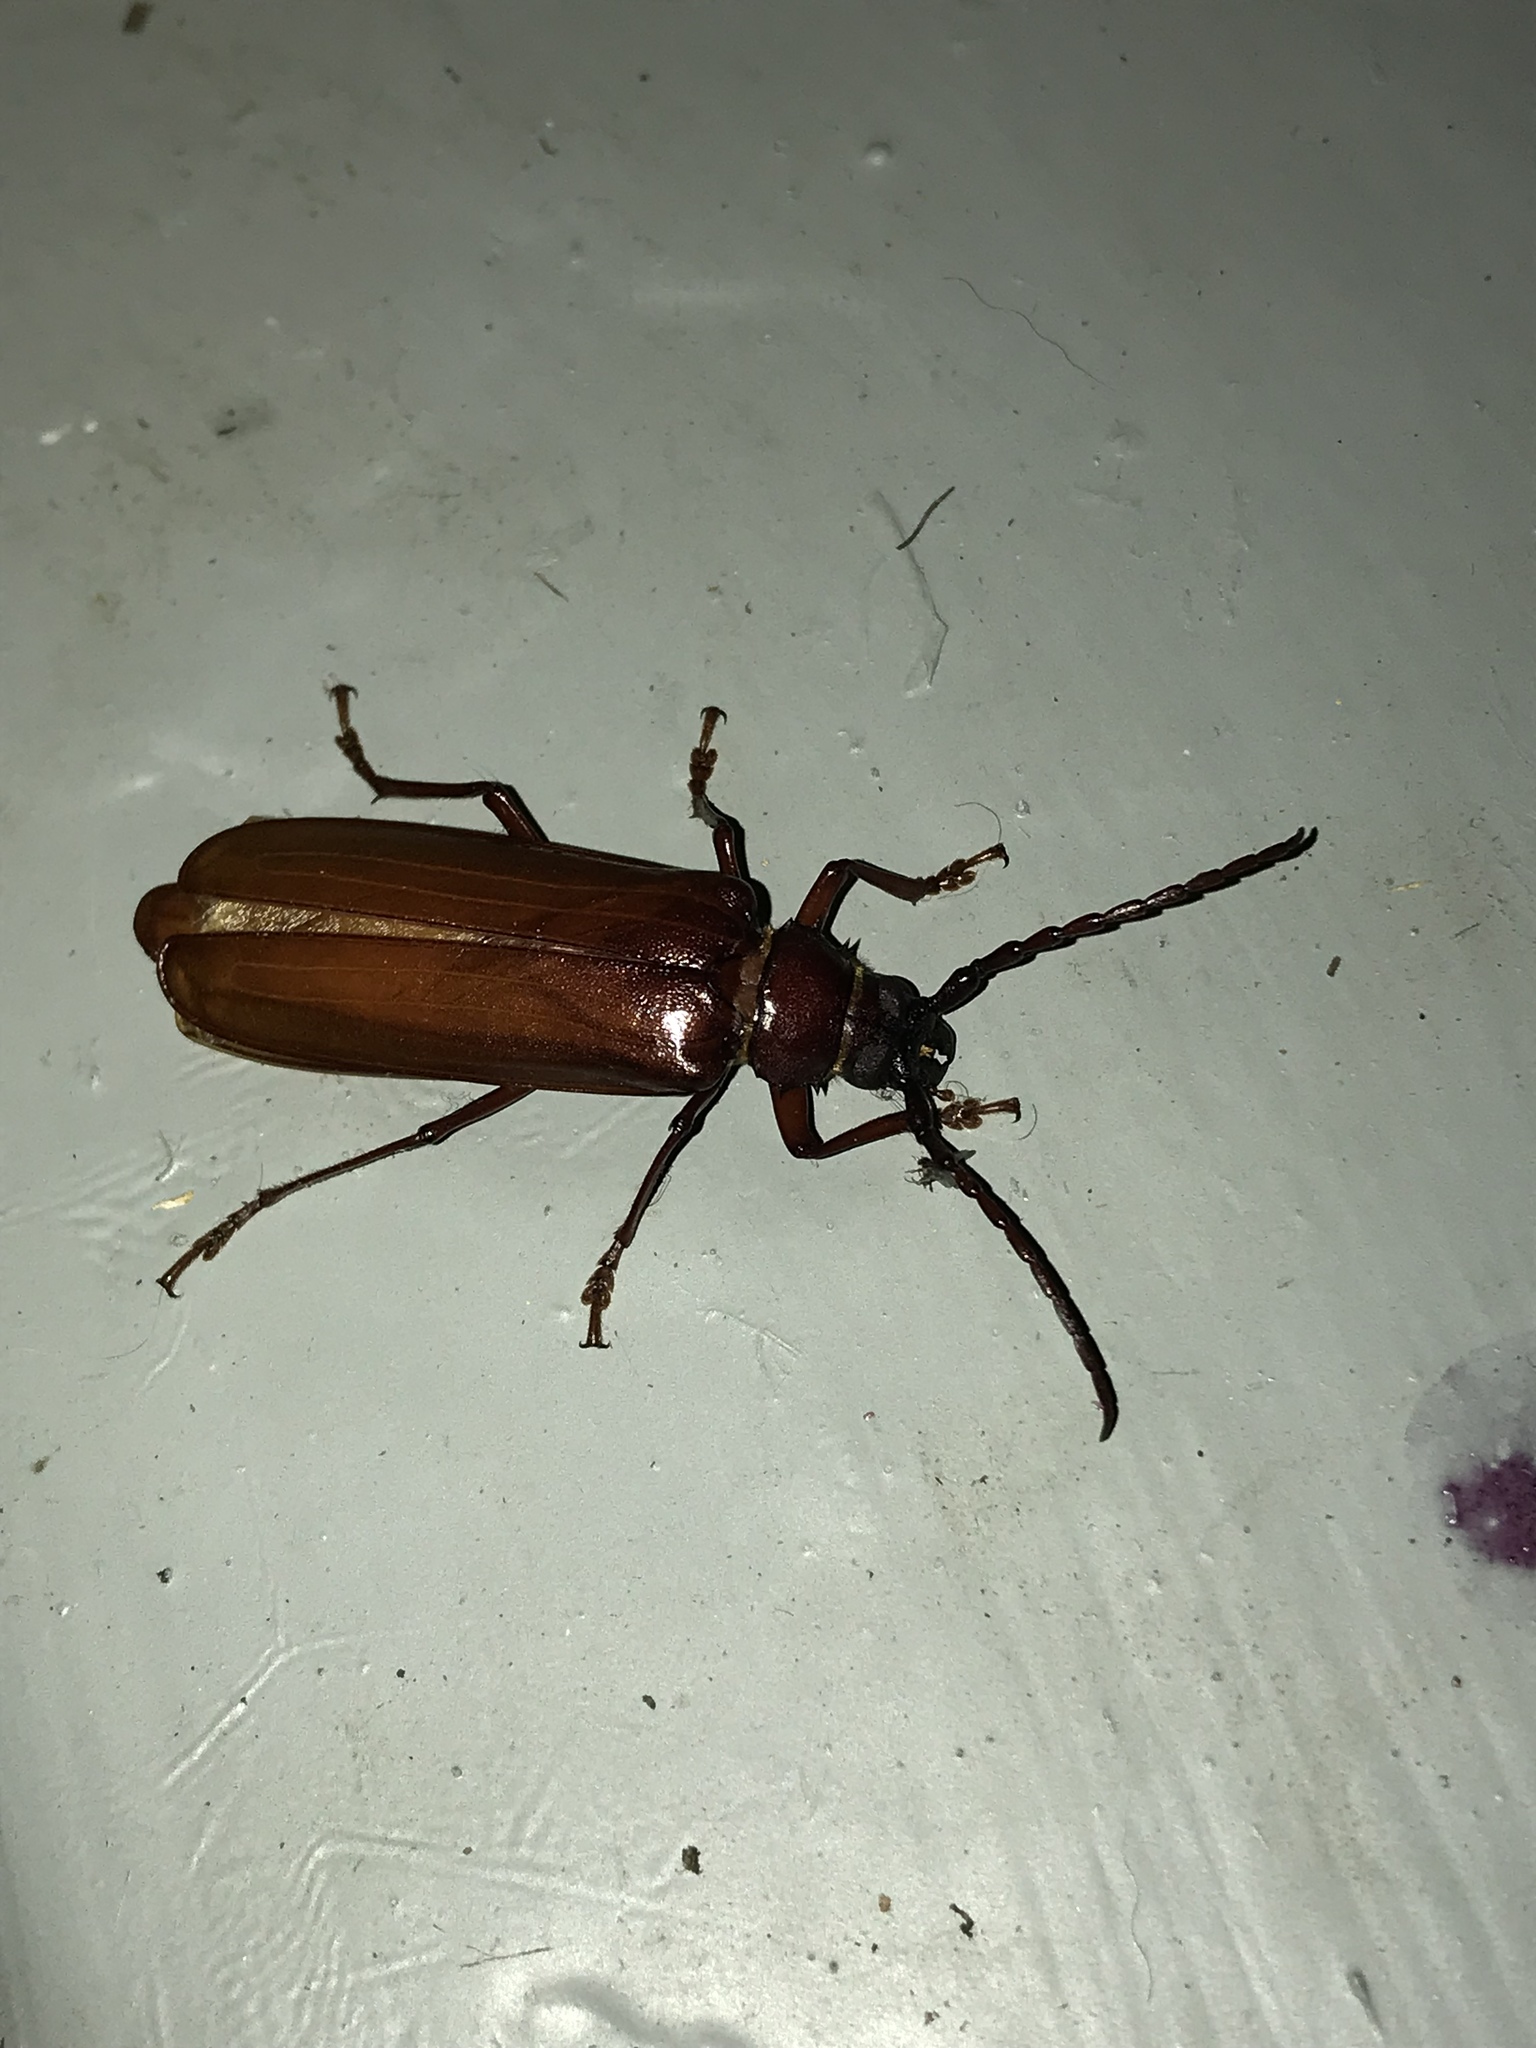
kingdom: Animalia
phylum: Arthropoda
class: Insecta
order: Coleoptera
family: Cerambycidae
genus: Orthosoma
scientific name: Orthosoma brunneum
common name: Brown prionid beetle
